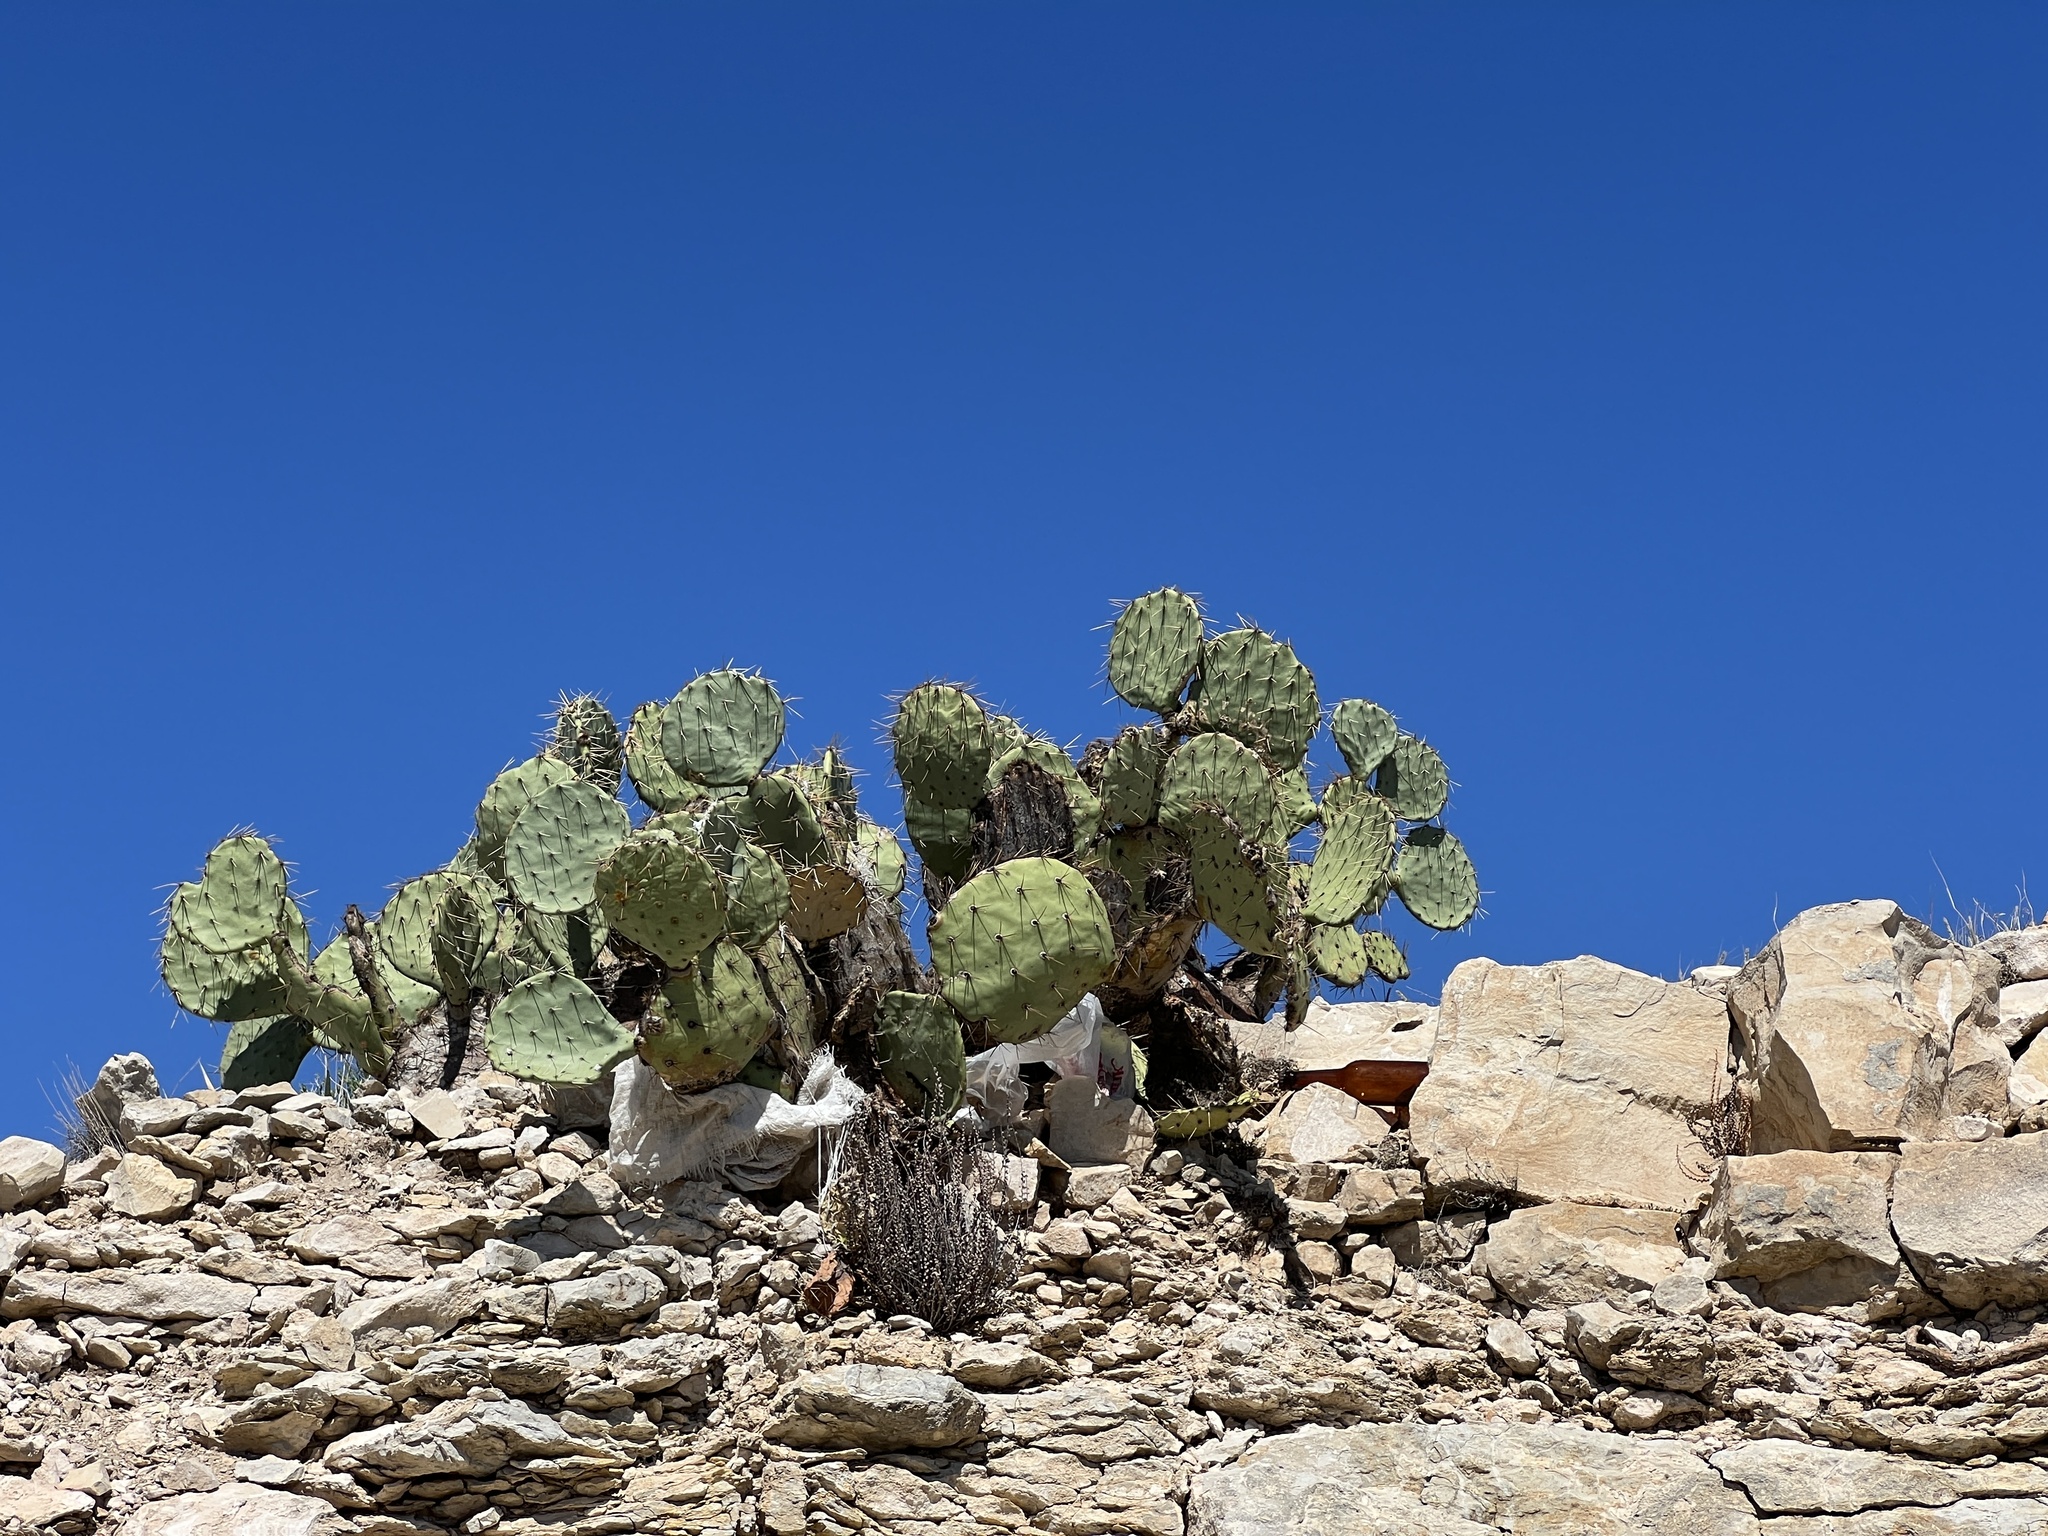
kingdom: Plantae
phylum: Tracheophyta
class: Magnoliopsida
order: Caryophyllales
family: Cactaceae
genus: Opuntia
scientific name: Opuntia engelmannii
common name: Cactus-apple
